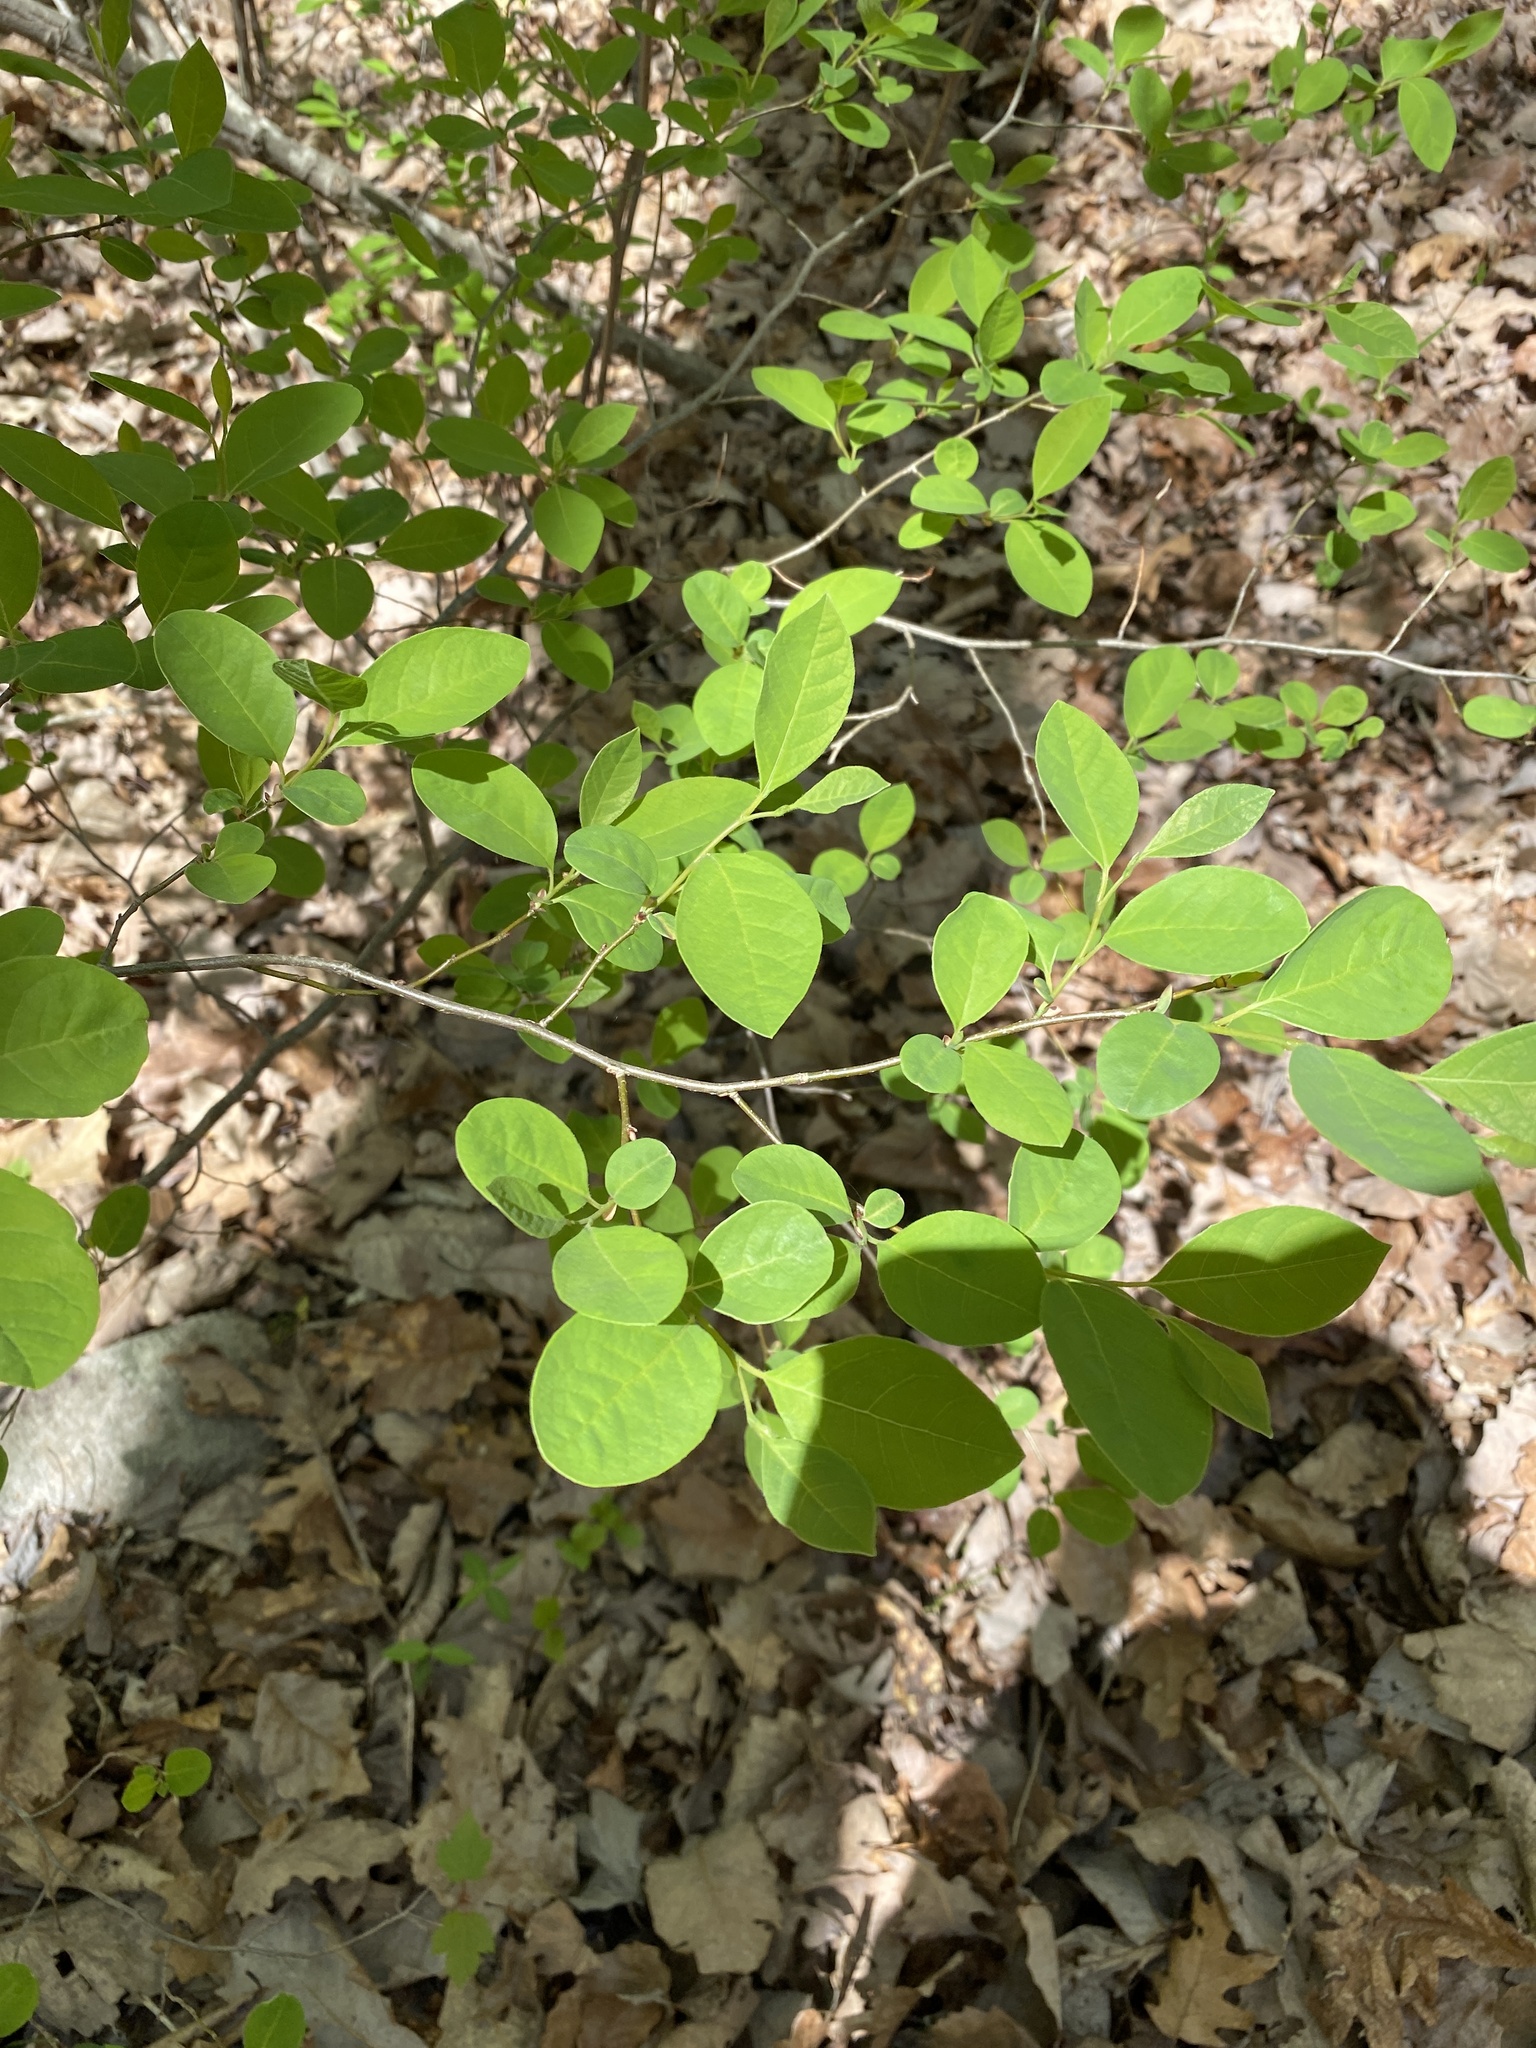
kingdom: Plantae
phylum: Tracheophyta
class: Magnoliopsida
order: Laurales
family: Lauraceae
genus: Lindera
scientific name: Lindera benzoin
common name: Spicebush
